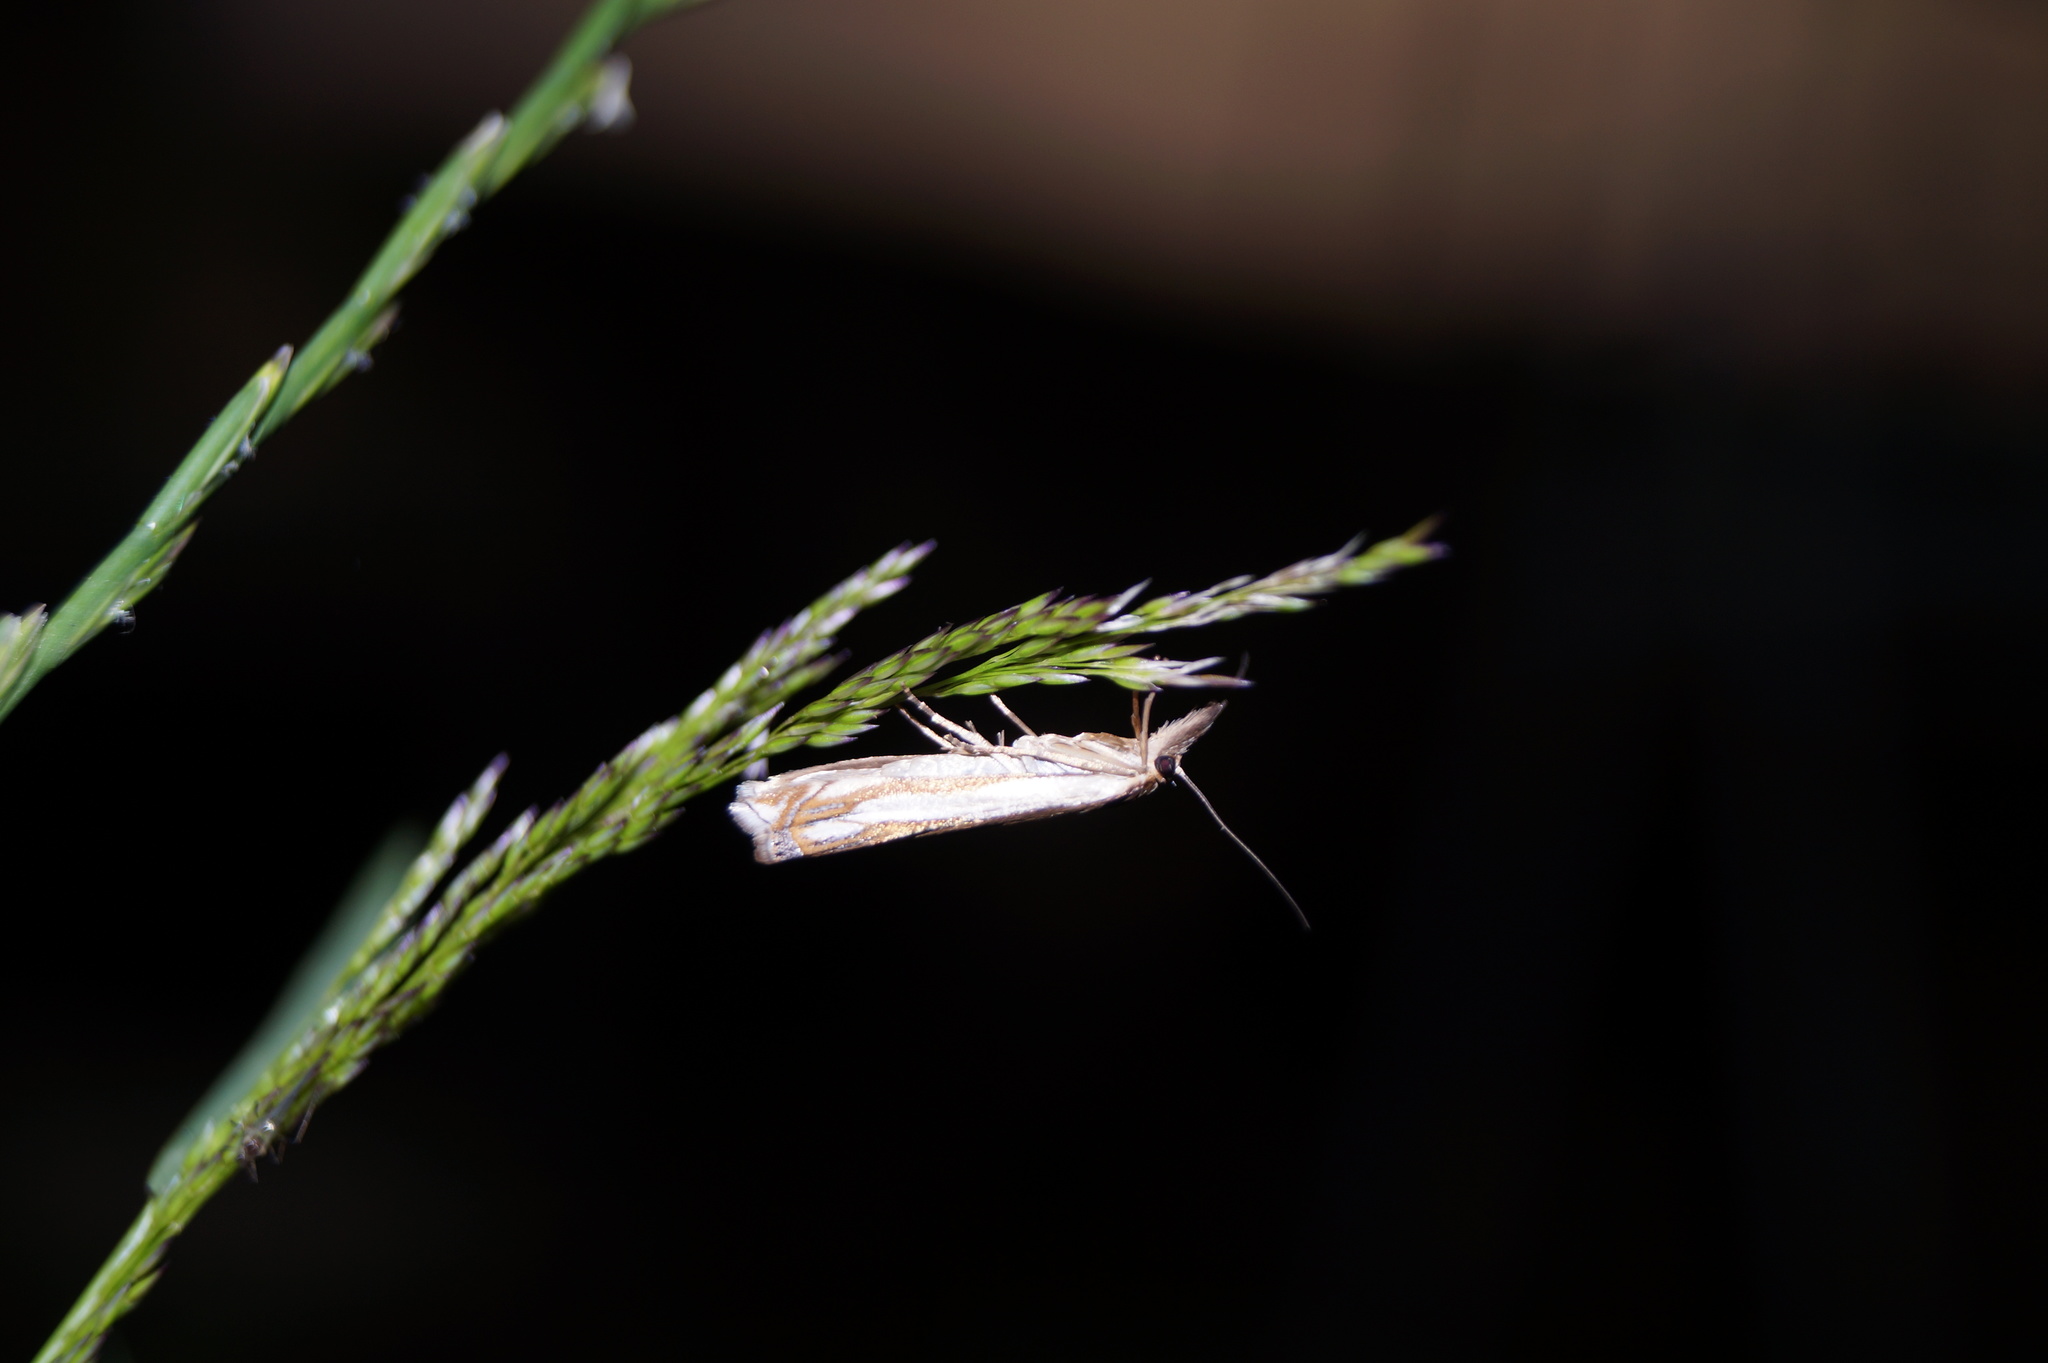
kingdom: Animalia
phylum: Arthropoda
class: Insecta
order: Lepidoptera
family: Crambidae
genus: Crambus
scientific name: Crambus pascuella
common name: Inlaid grass-veneer
